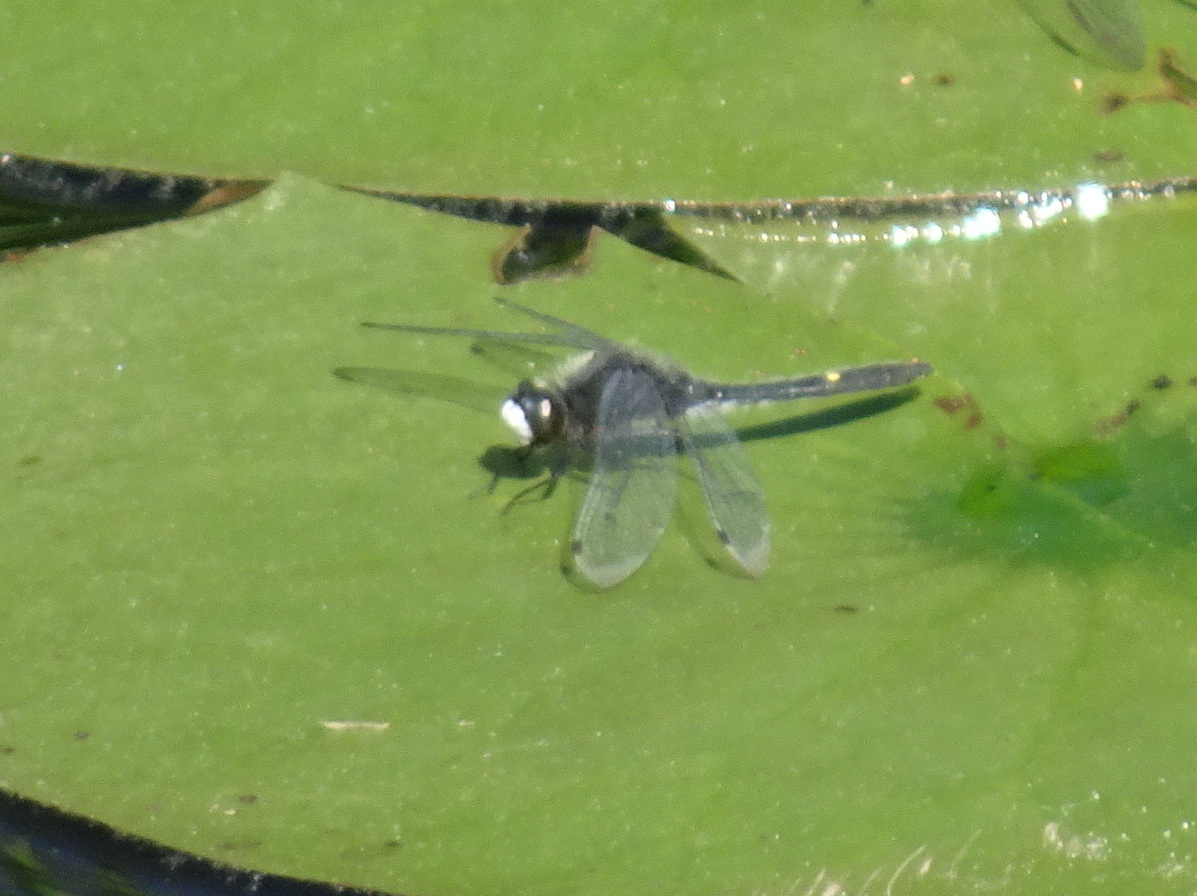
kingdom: Animalia
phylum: Arthropoda
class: Insecta
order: Odonata
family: Libellulidae
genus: Leucorrhinia
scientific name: Leucorrhinia intacta
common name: Dot-tailed whiteface
